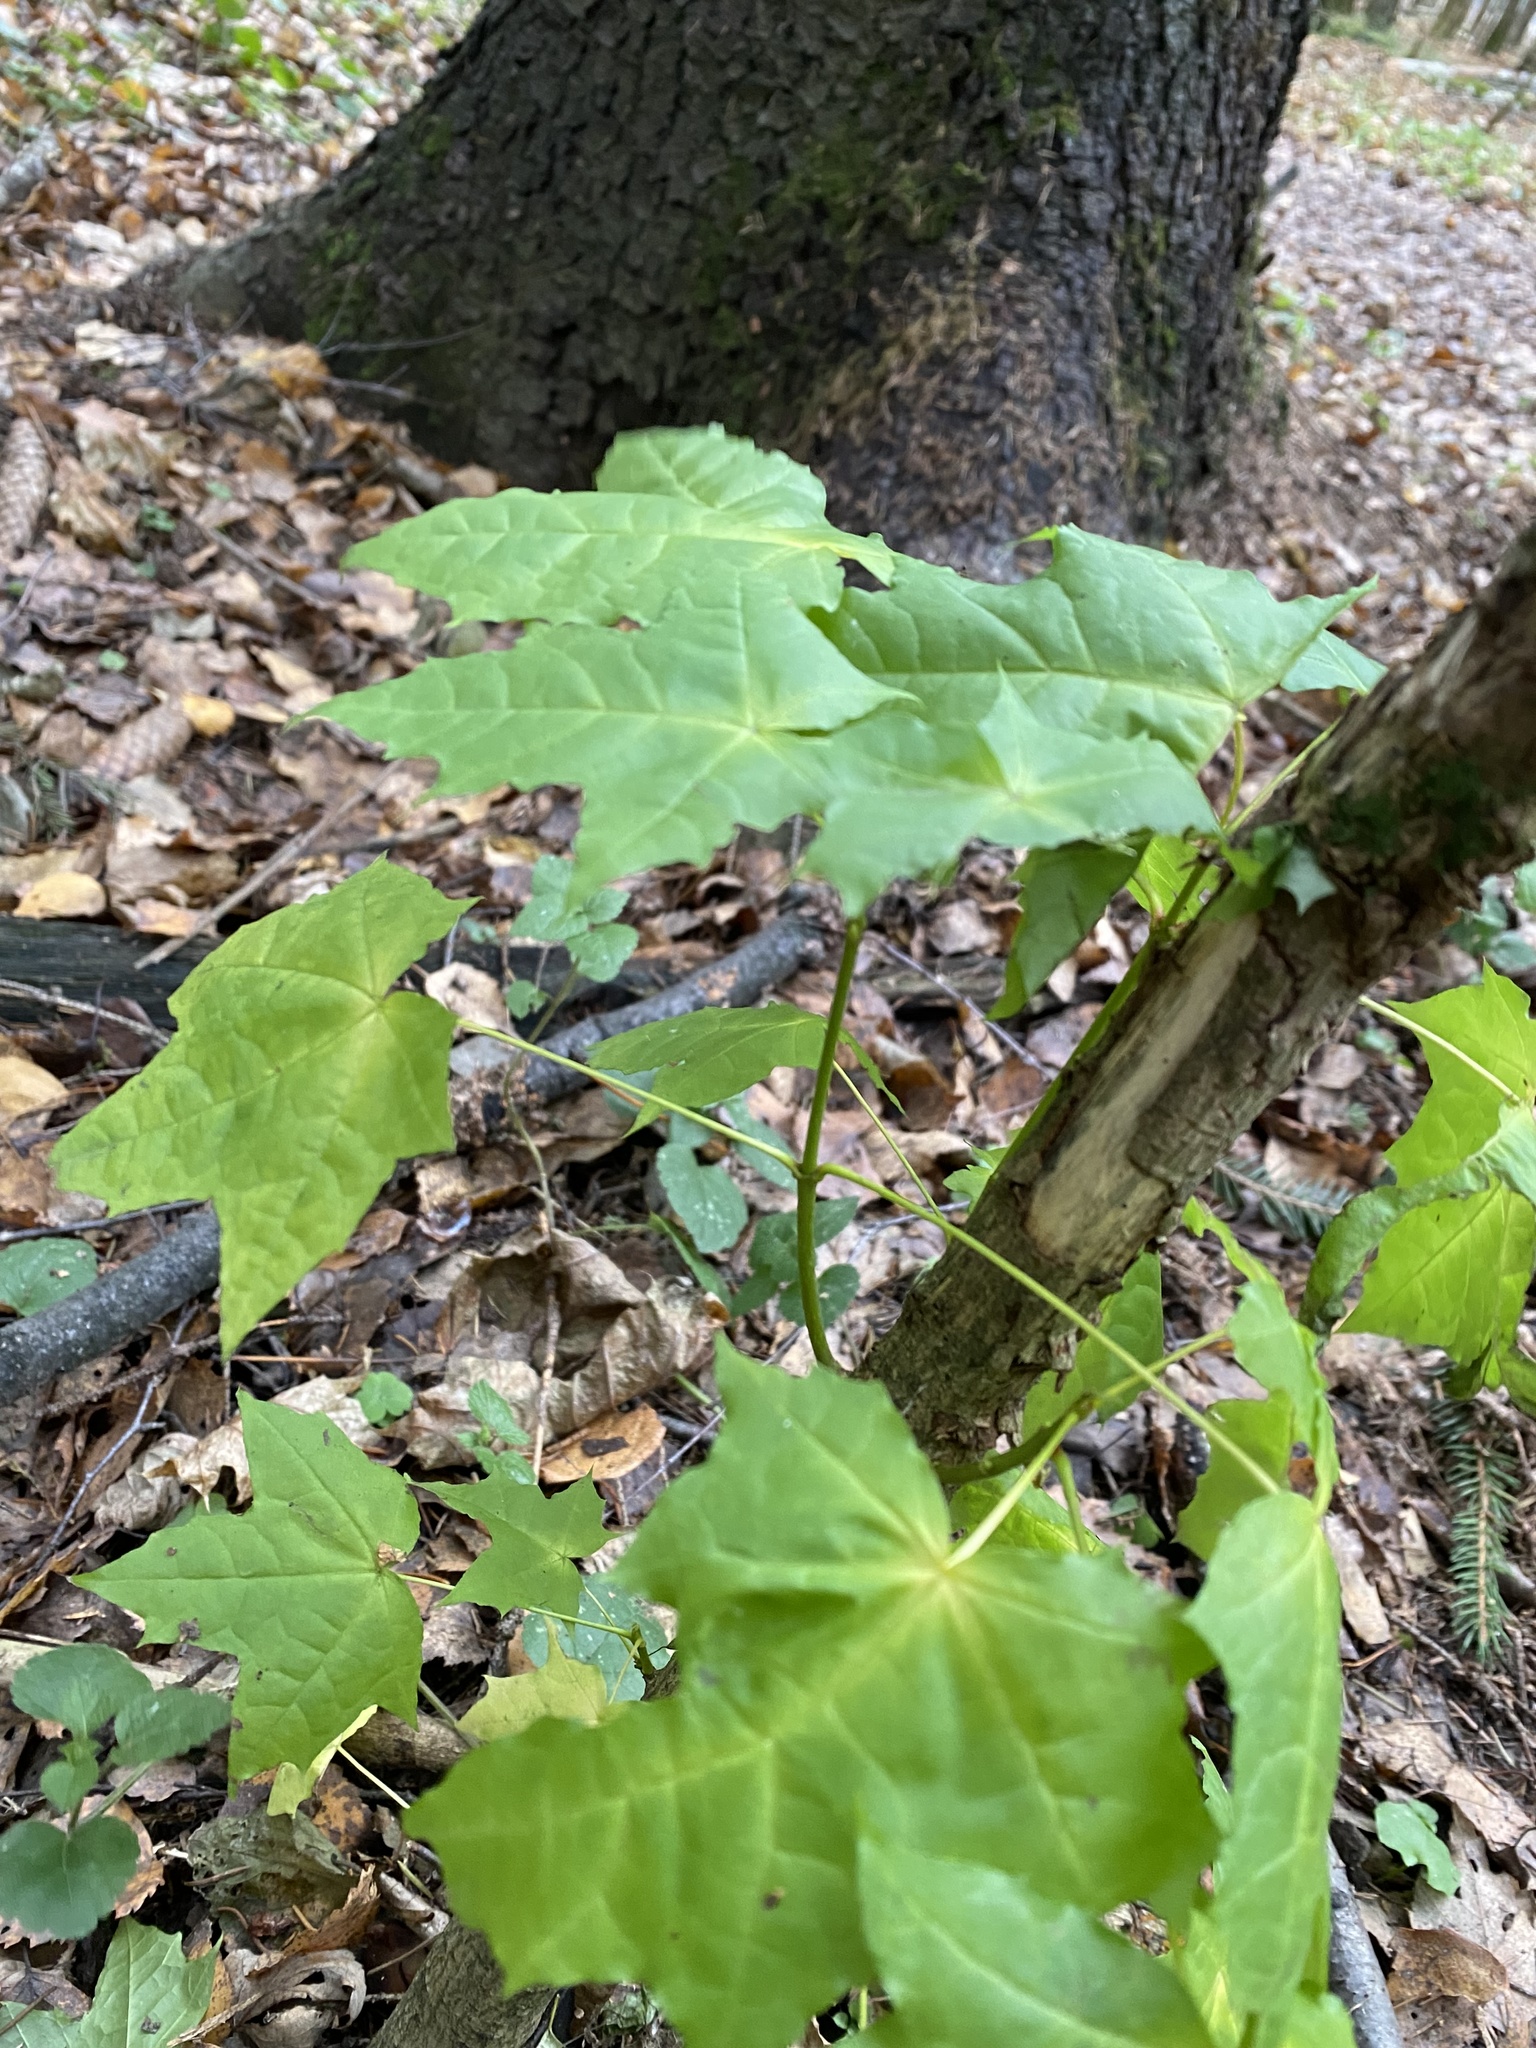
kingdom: Plantae
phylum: Tracheophyta
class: Magnoliopsida
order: Sapindales
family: Sapindaceae
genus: Acer
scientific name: Acer platanoides
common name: Norway maple
